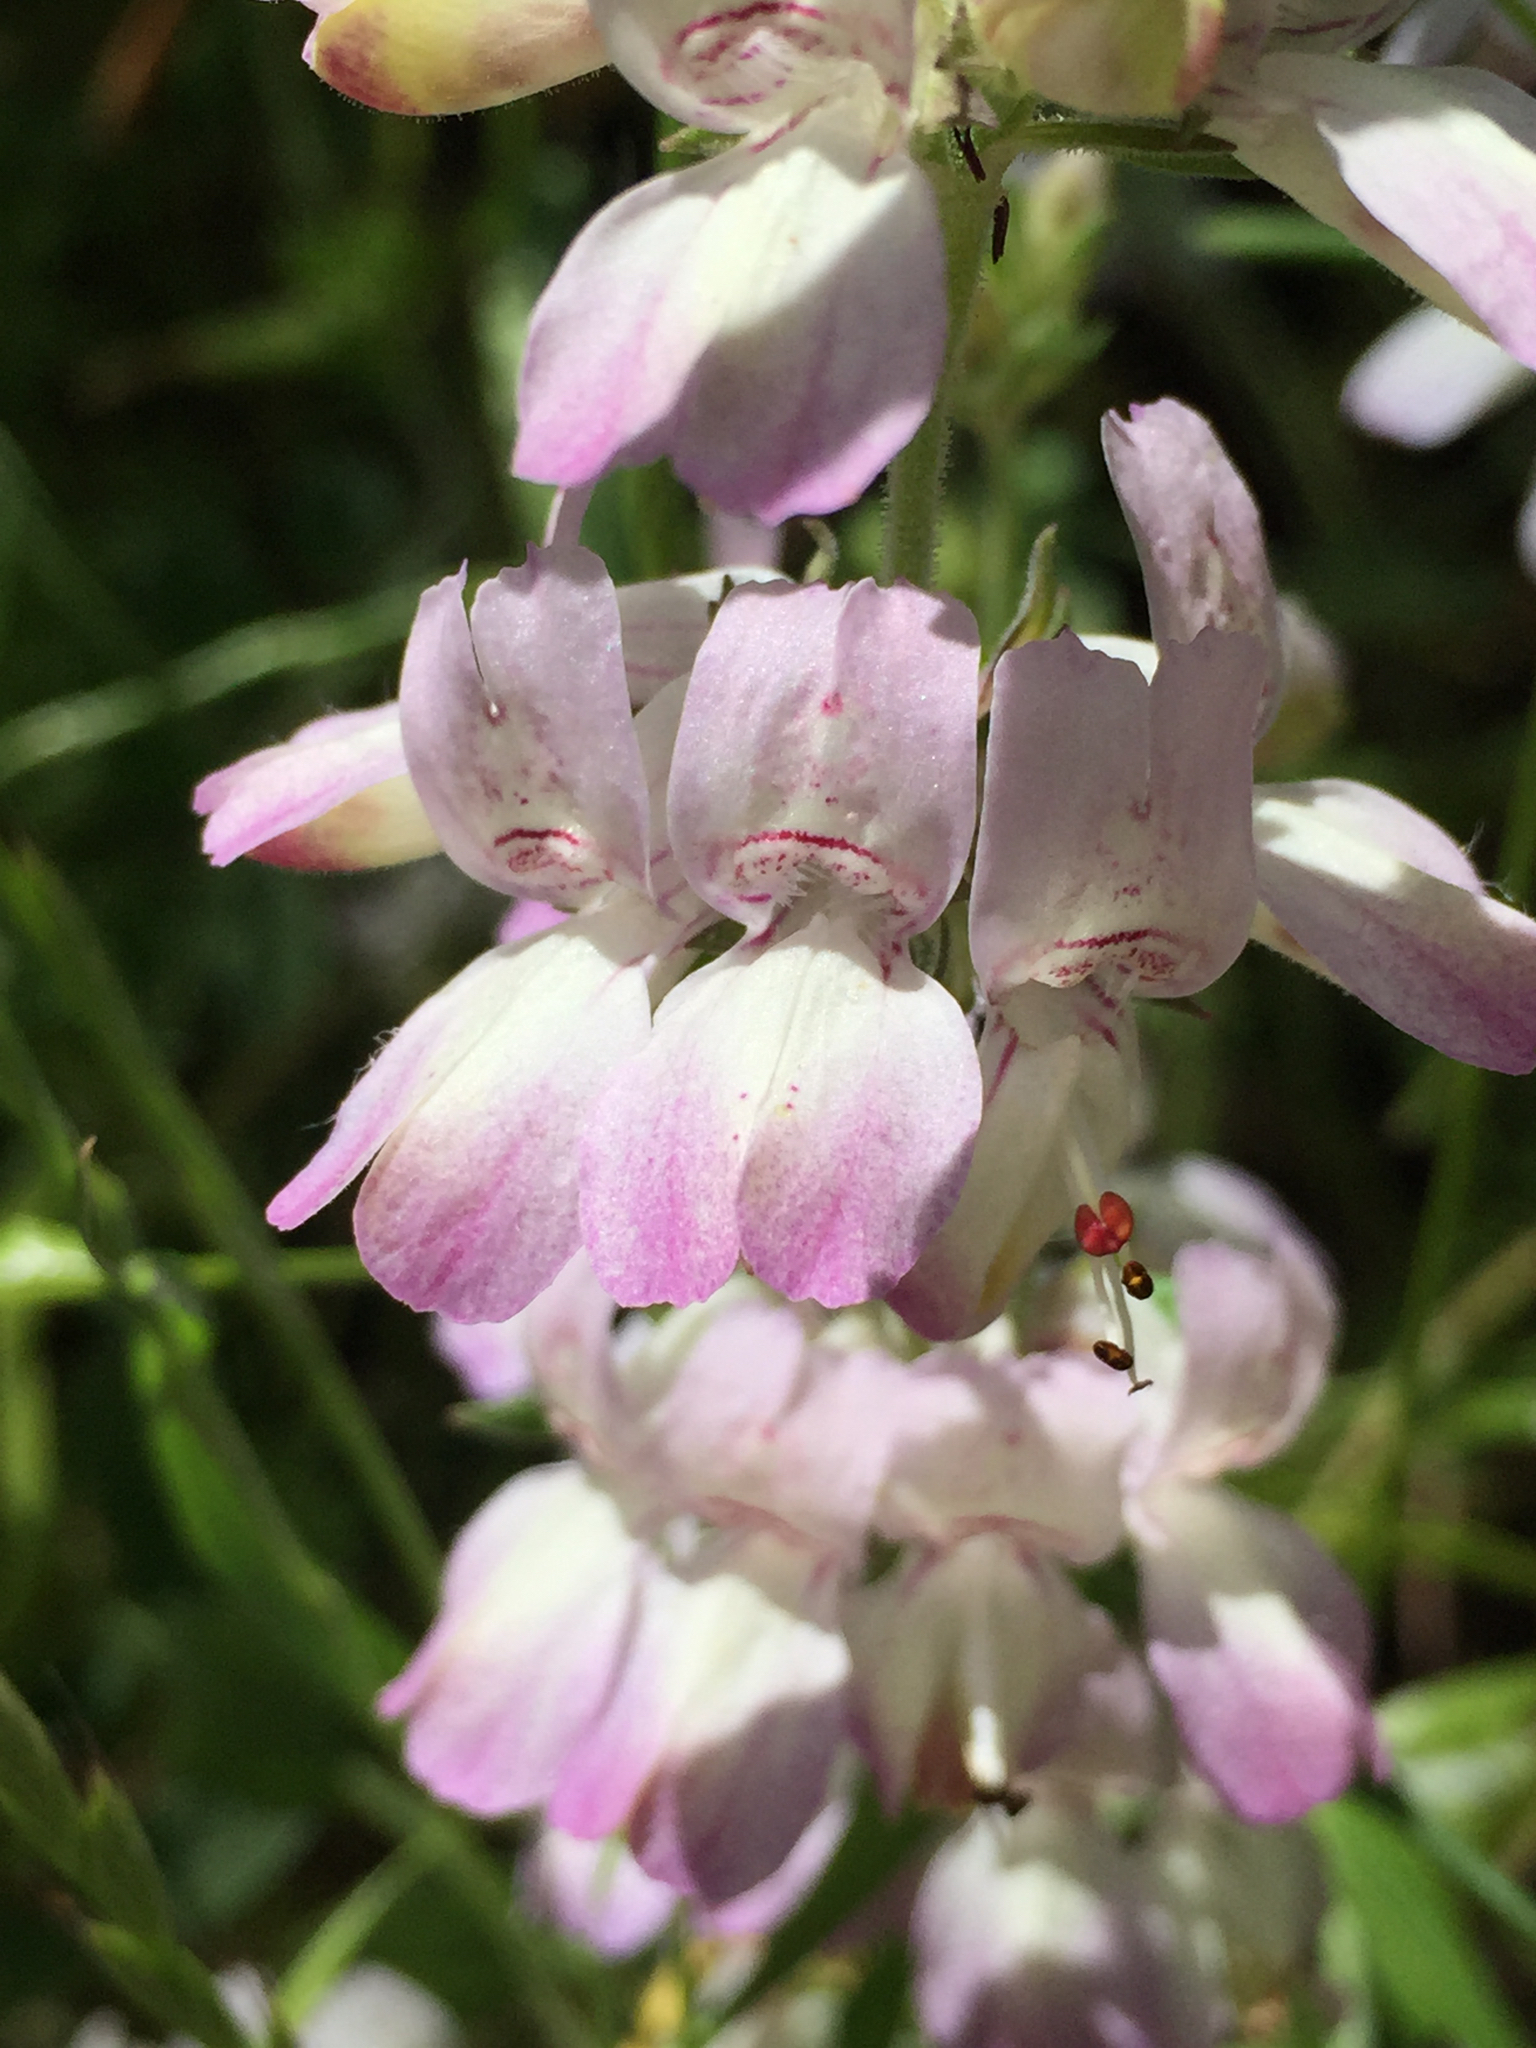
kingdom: Plantae
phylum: Tracheophyta
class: Magnoliopsida
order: Lamiales
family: Plantaginaceae
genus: Collinsia
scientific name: Collinsia heterophylla
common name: Chinese-houses
